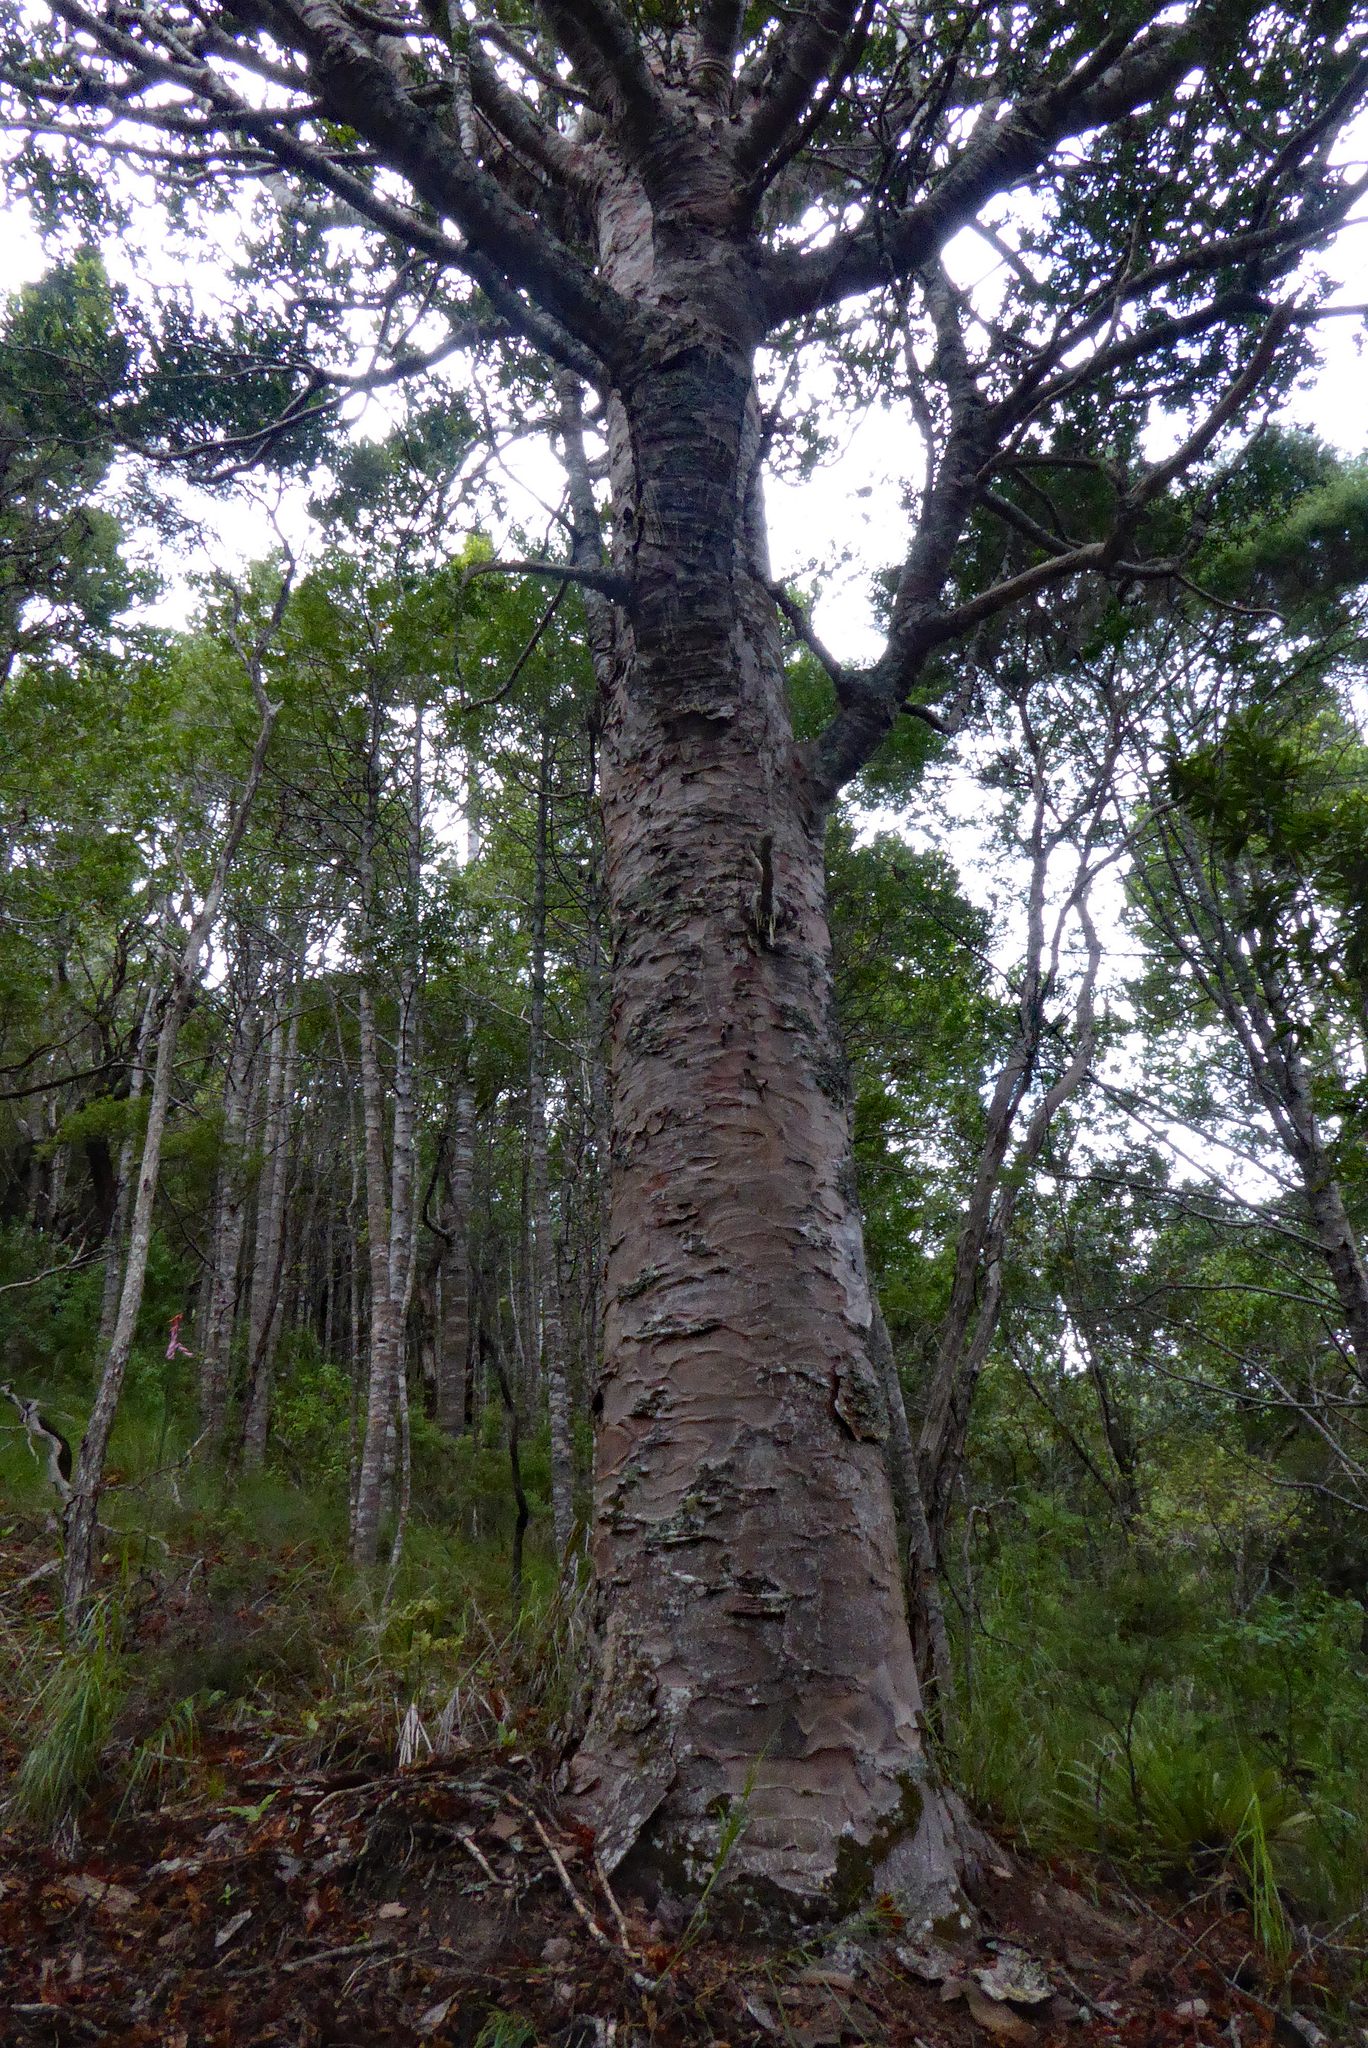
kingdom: Plantae
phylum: Tracheophyta
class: Pinopsida
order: Pinales
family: Araucariaceae
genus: Agathis
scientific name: Agathis australis
